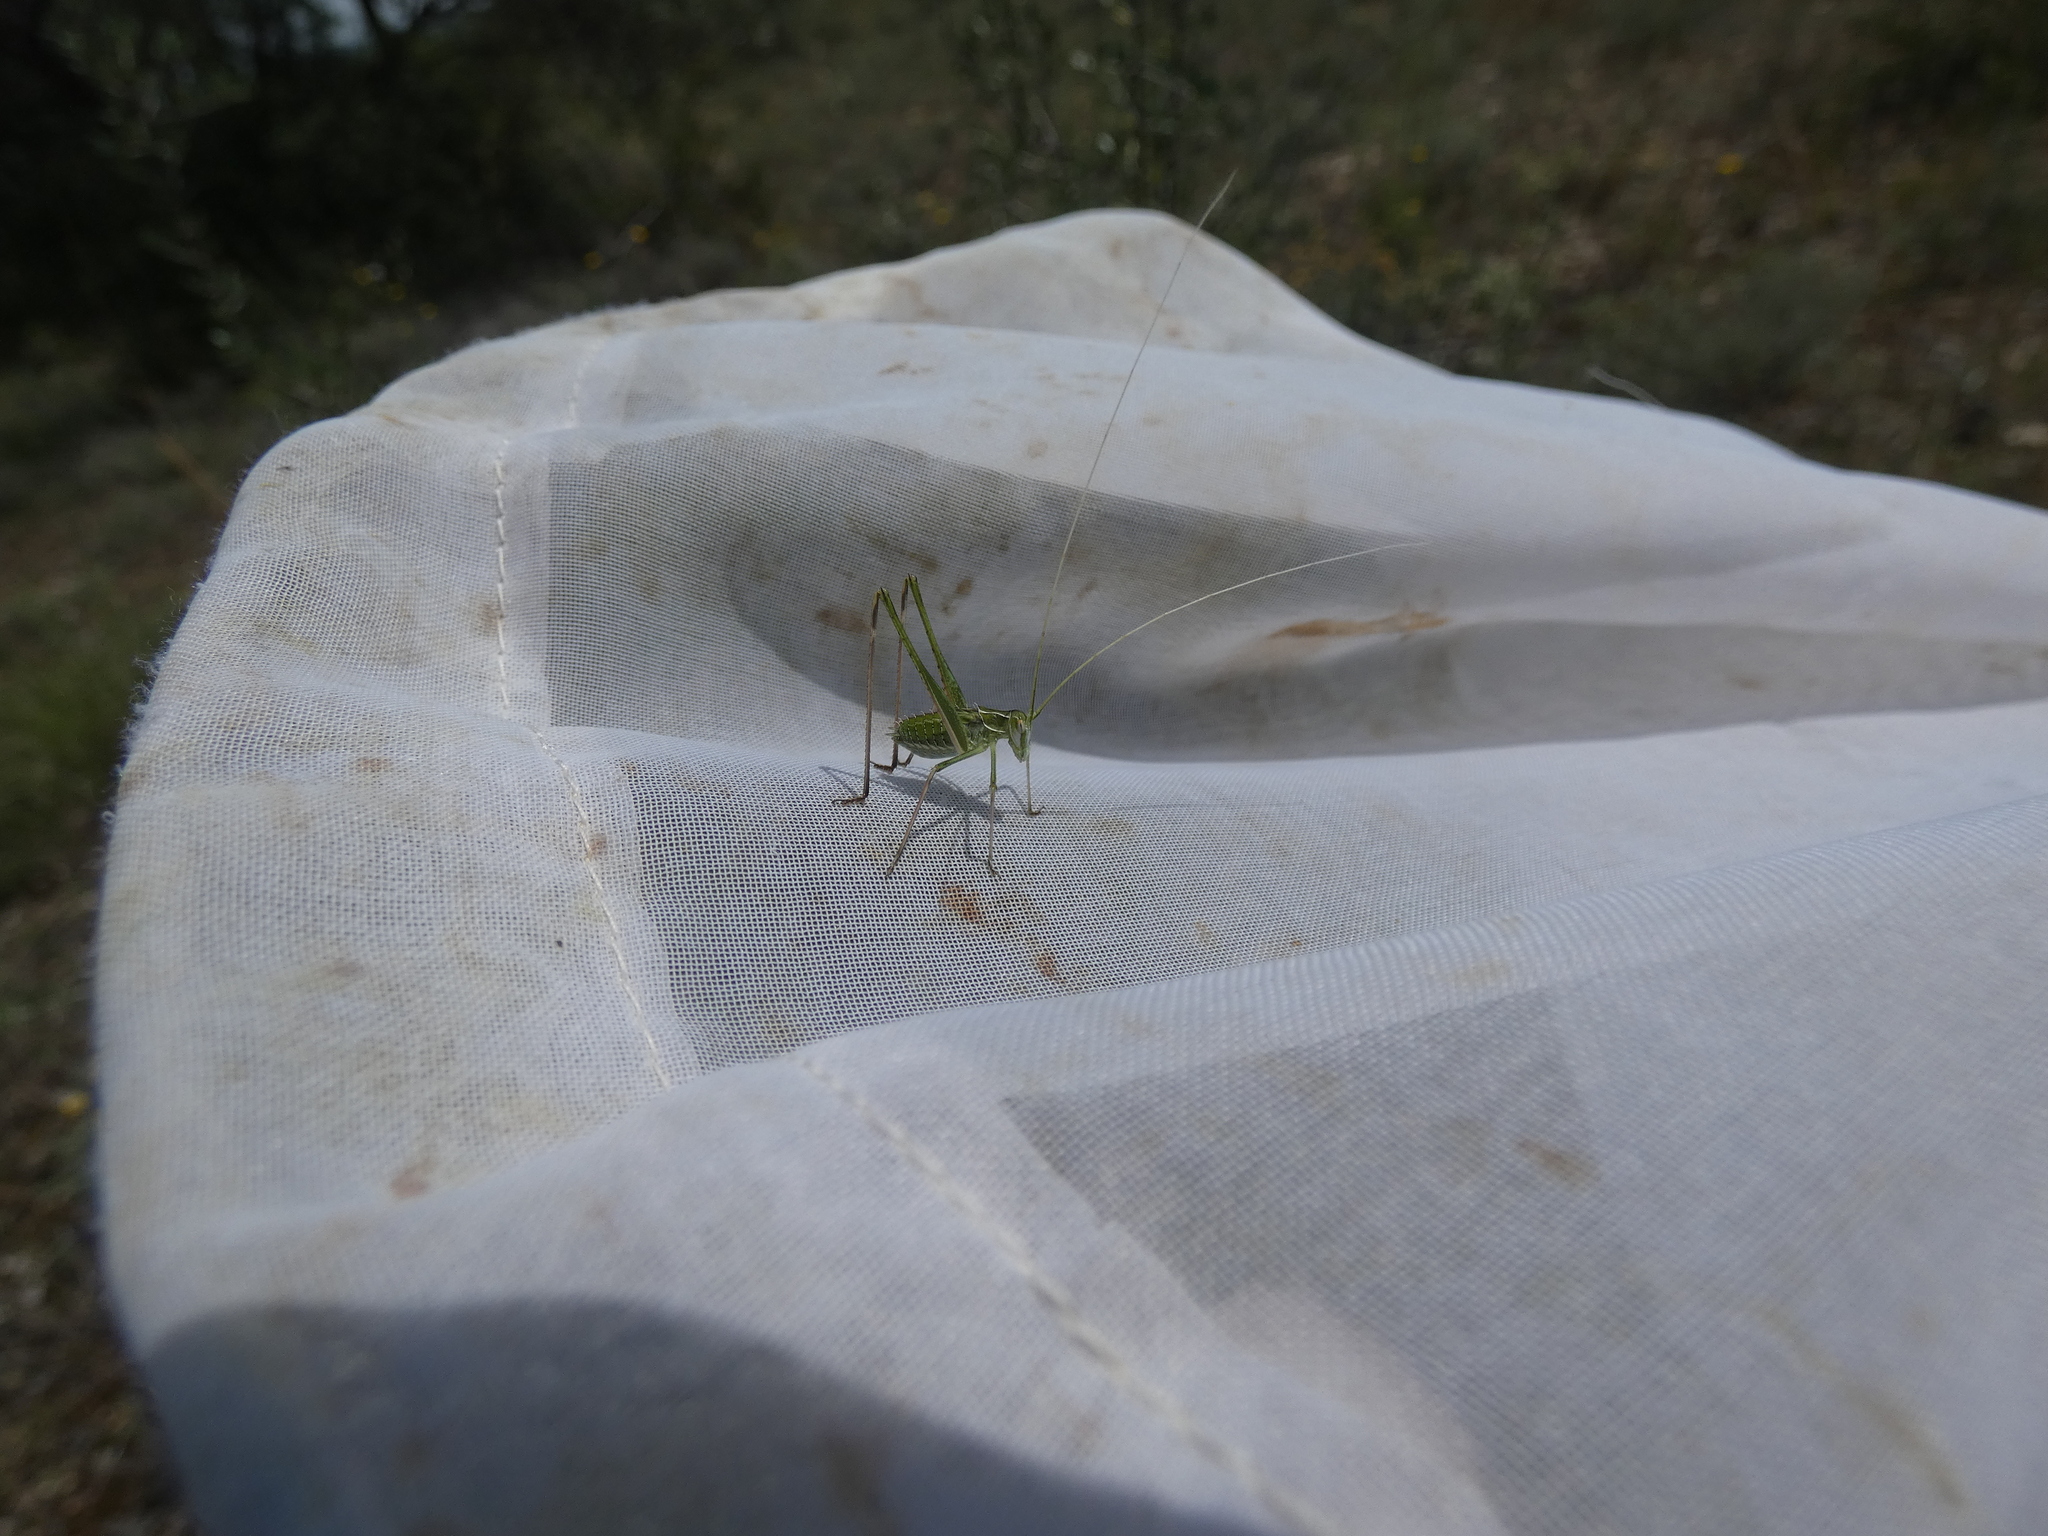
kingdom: Animalia
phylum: Arthropoda
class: Insecta
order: Orthoptera
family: Tettigoniidae
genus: Tylopsis
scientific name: Tylopsis lilifolia
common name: Lily bush-cricket
